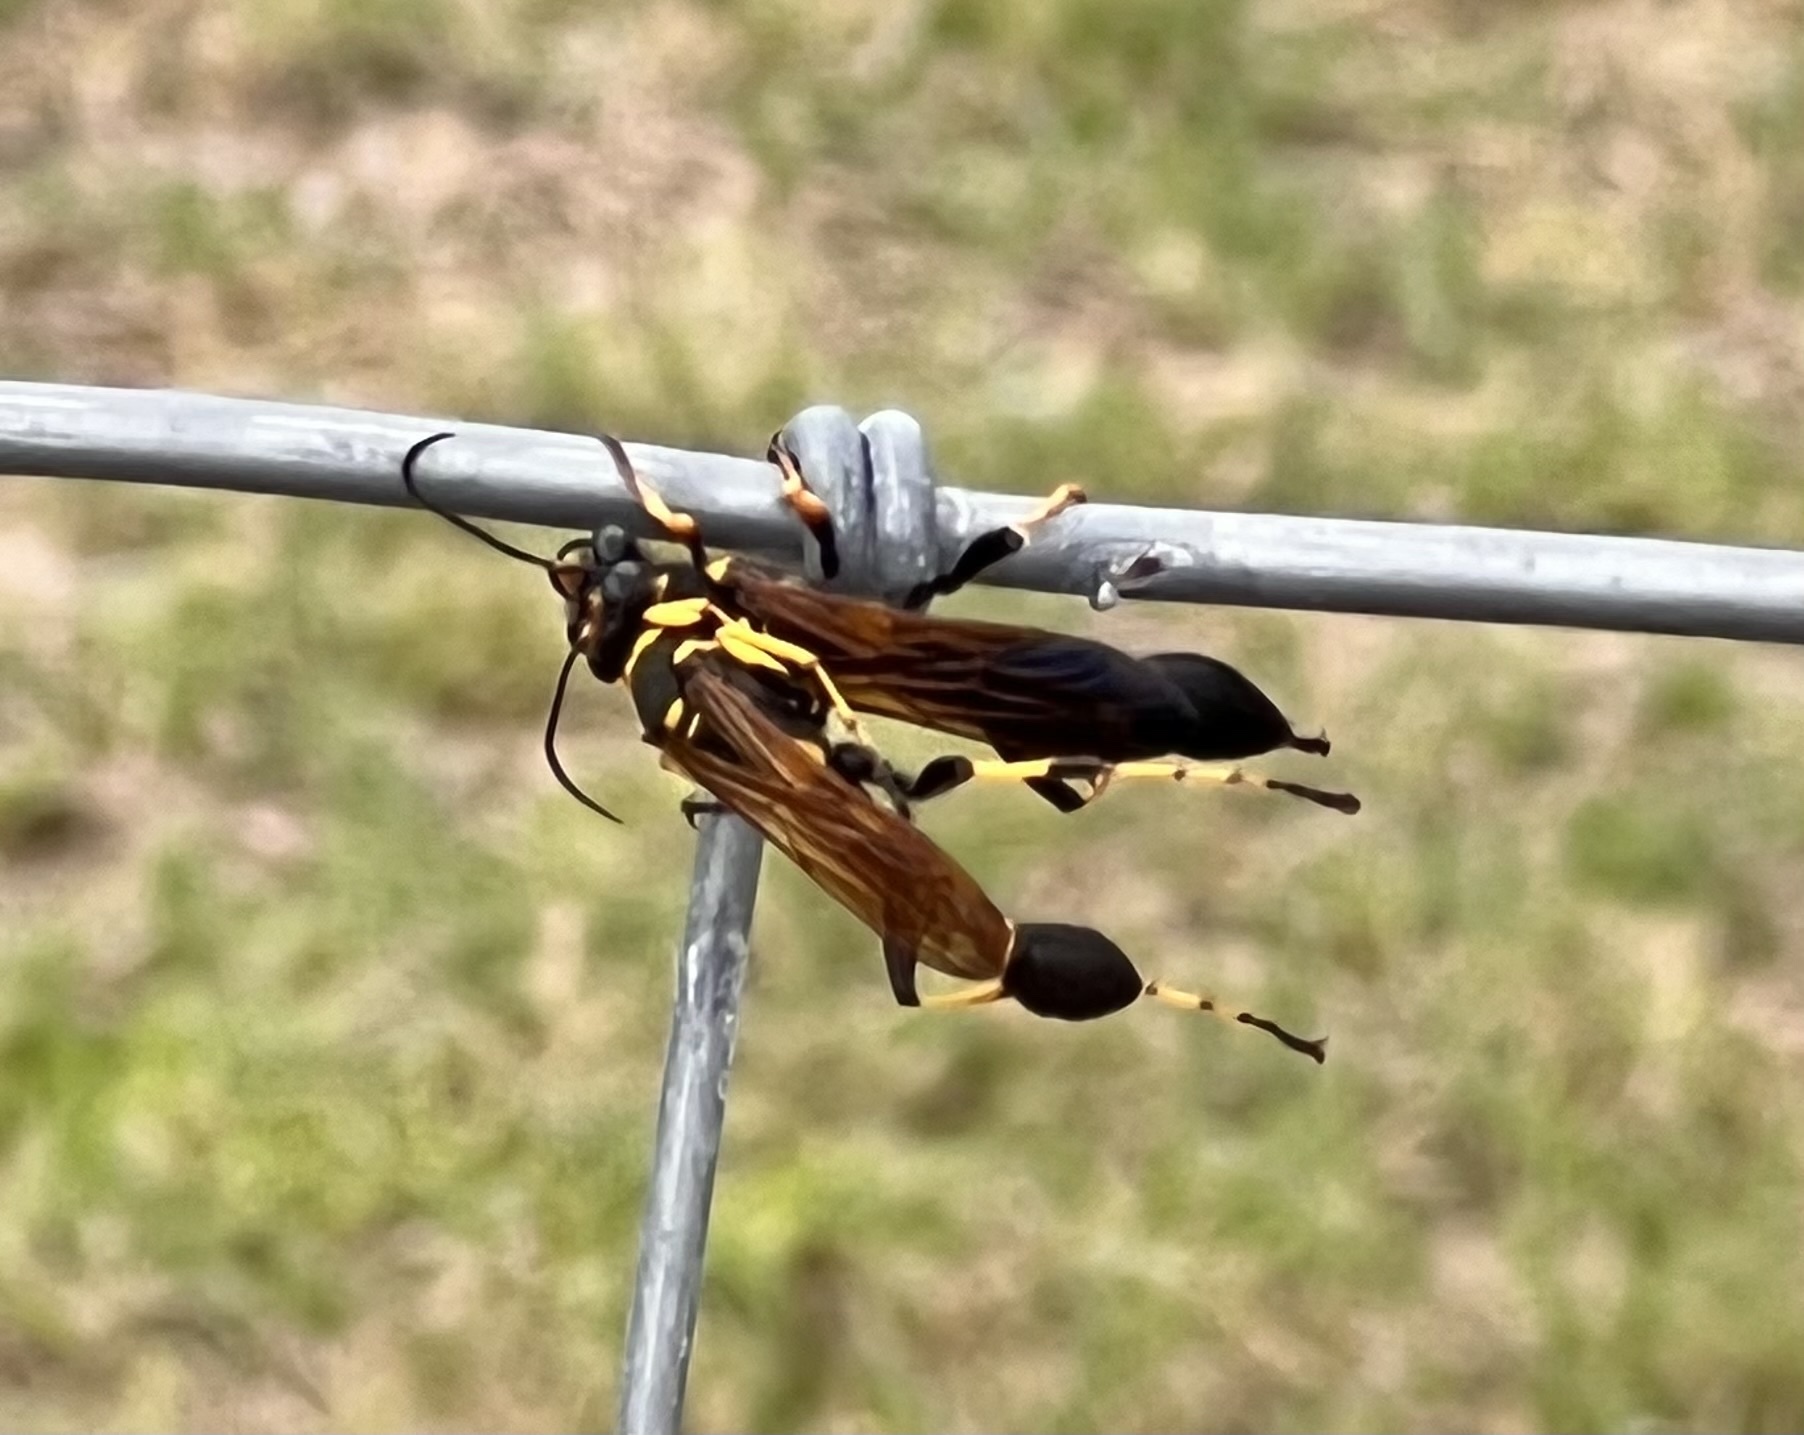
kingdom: Animalia
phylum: Arthropoda
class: Insecta
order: Hymenoptera
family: Sphecidae
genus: Sceliphron
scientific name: Sceliphron caementarium
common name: Mud dauber
